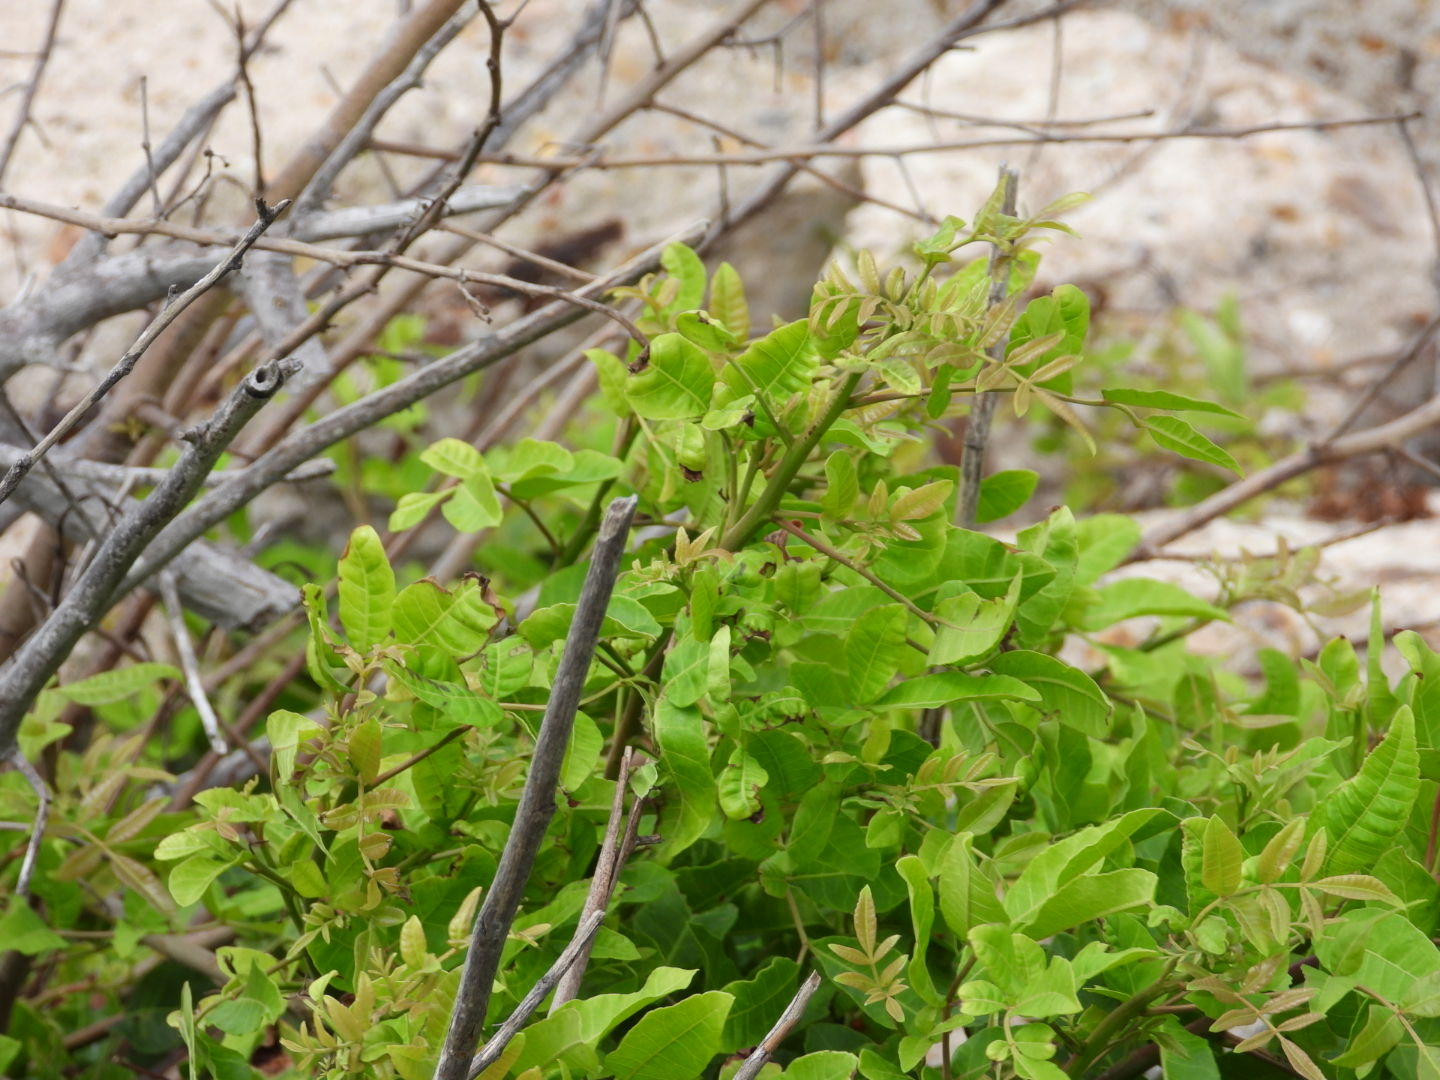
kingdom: Plantae
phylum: Tracheophyta
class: Magnoliopsida
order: Sapindales
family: Anacardiaceae
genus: Schinus
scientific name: Schinus terebinthifolia
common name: Brazilian peppertree
